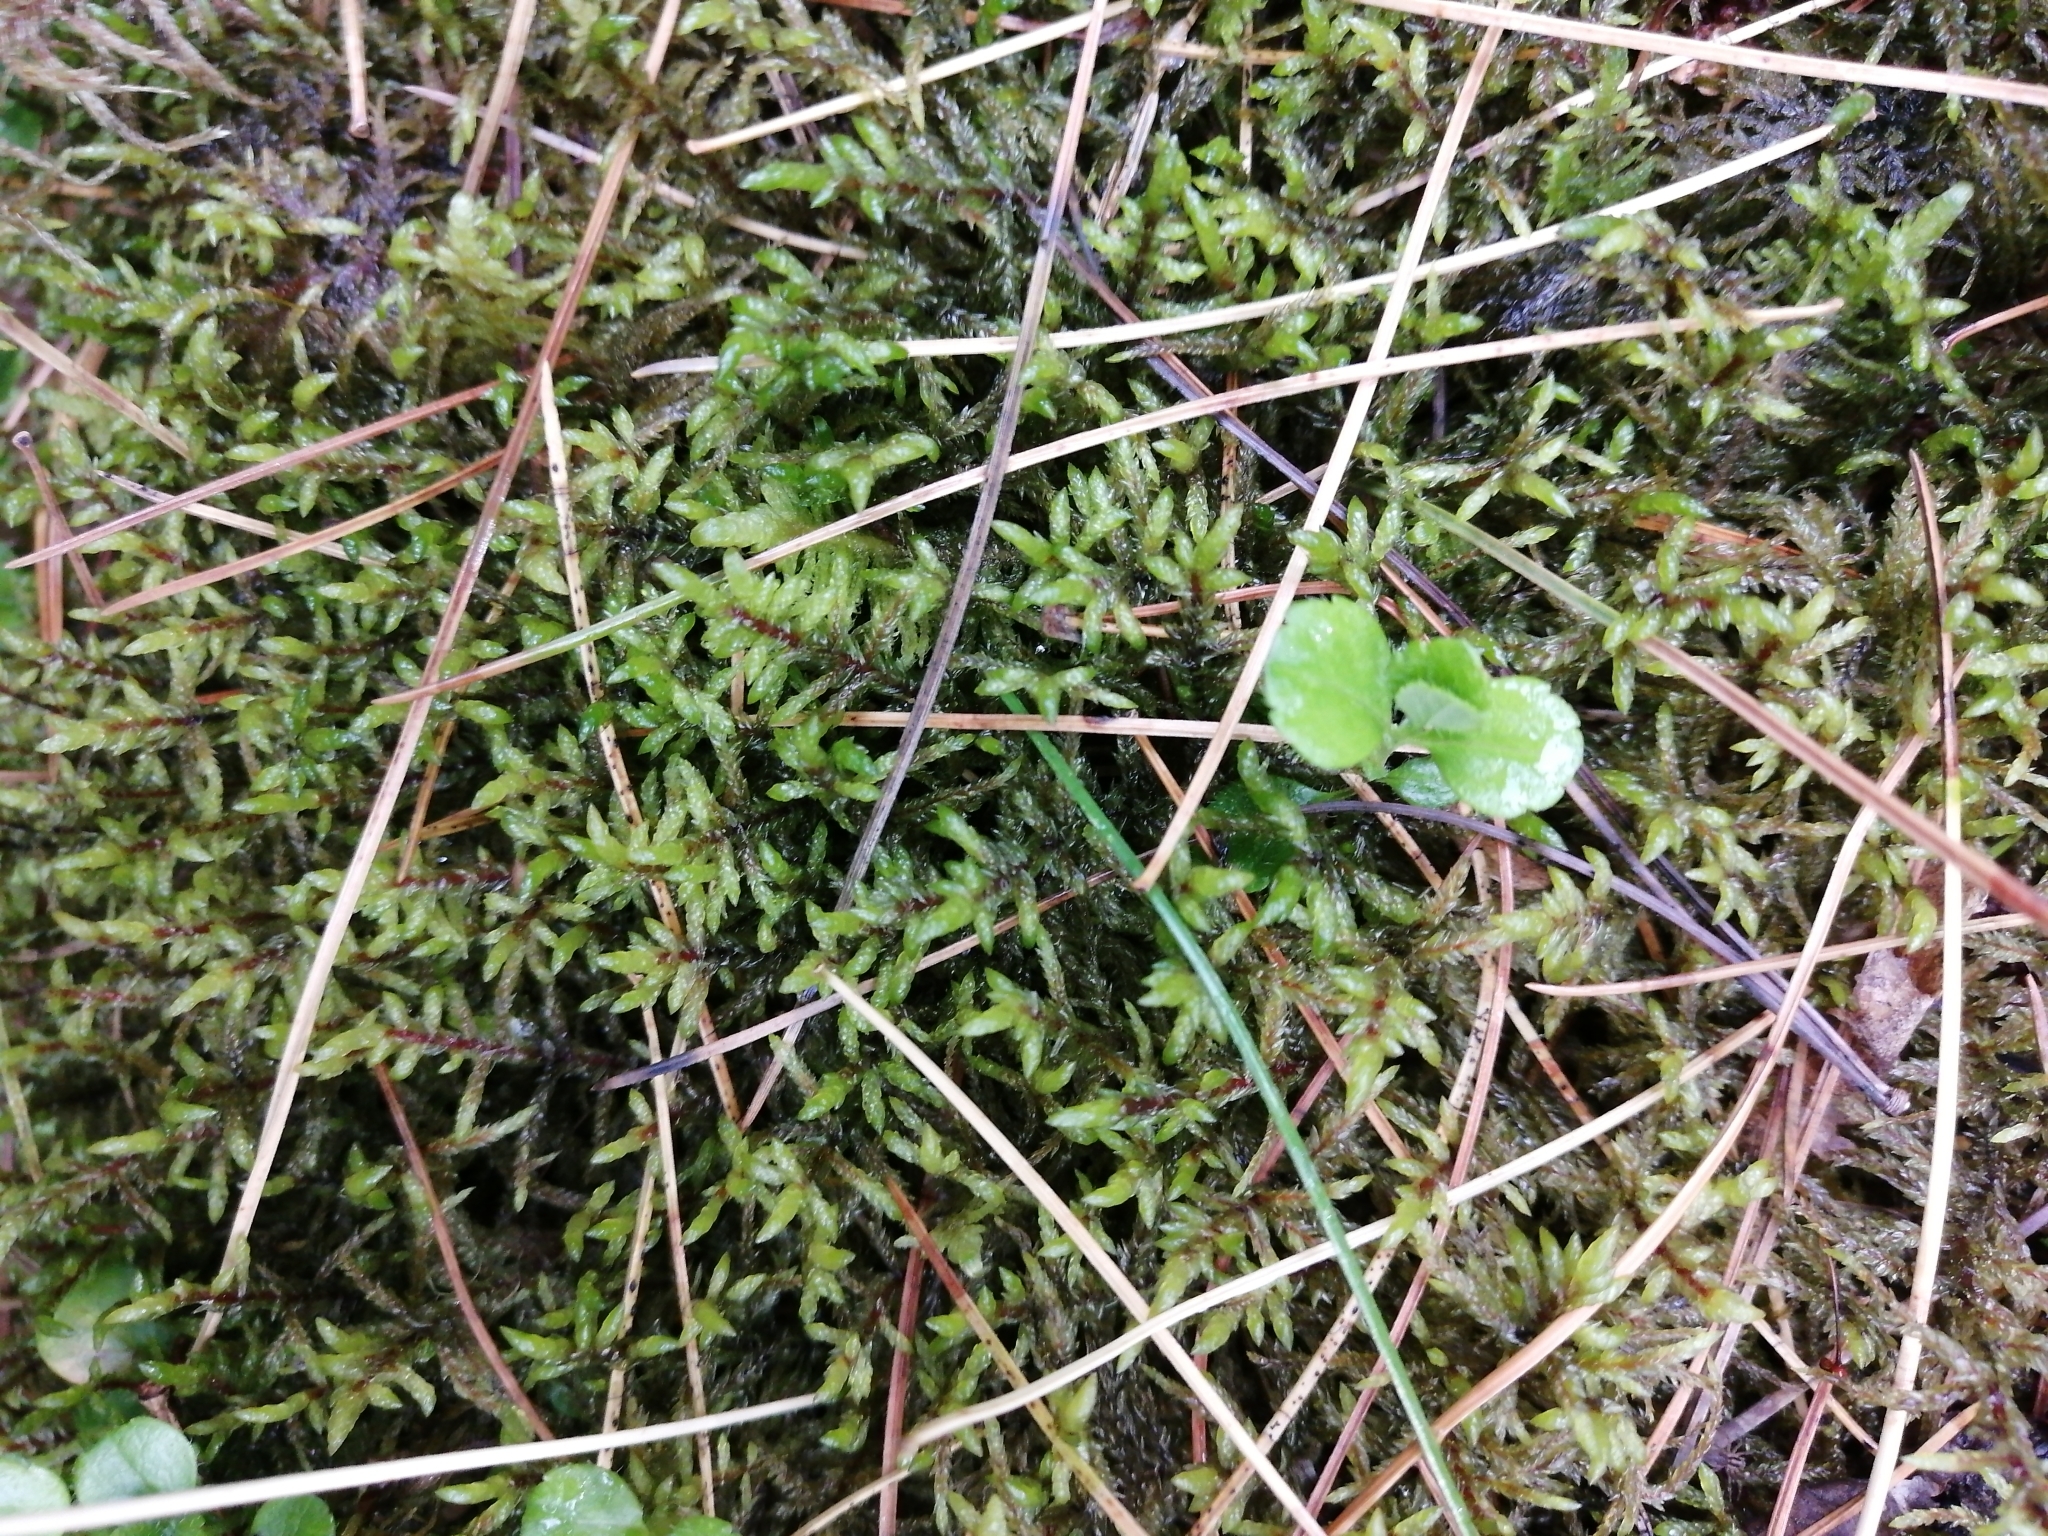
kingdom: Plantae
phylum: Bryophyta
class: Bryopsida
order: Hypnales
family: Hylocomiaceae
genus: Pleurozium
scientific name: Pleurozium schreberi
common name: Red-stemmed feather moss
